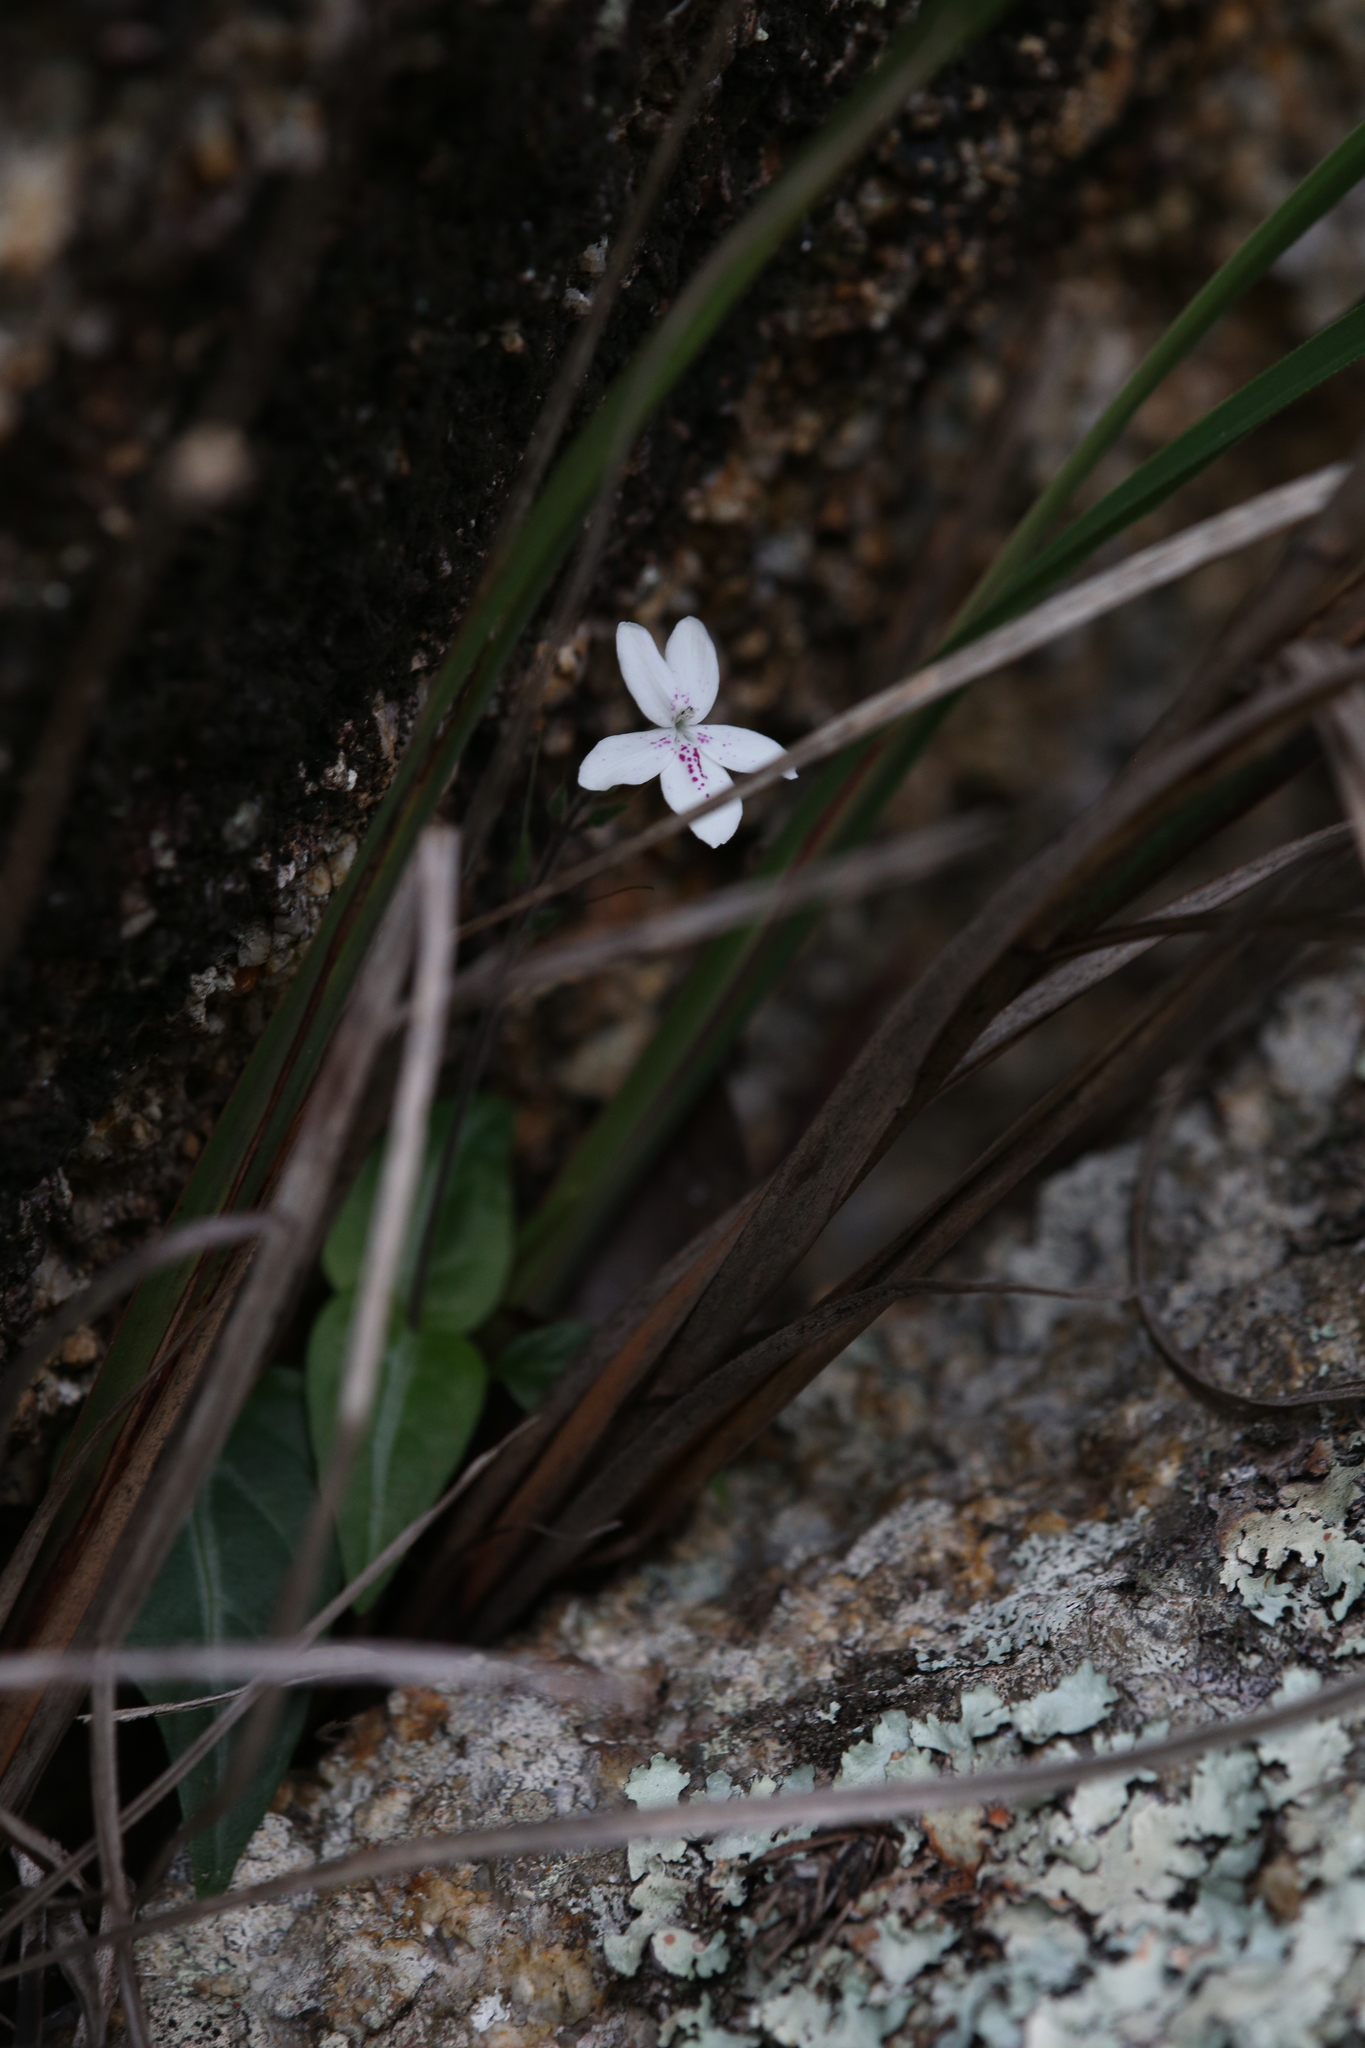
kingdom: Plantae
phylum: Tracheophyta
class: Magnoliopsida
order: Lamiales
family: Acanthaceae
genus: Pseuderanthemum
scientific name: Pseuderanthemum variabile
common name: Night and afternoon
